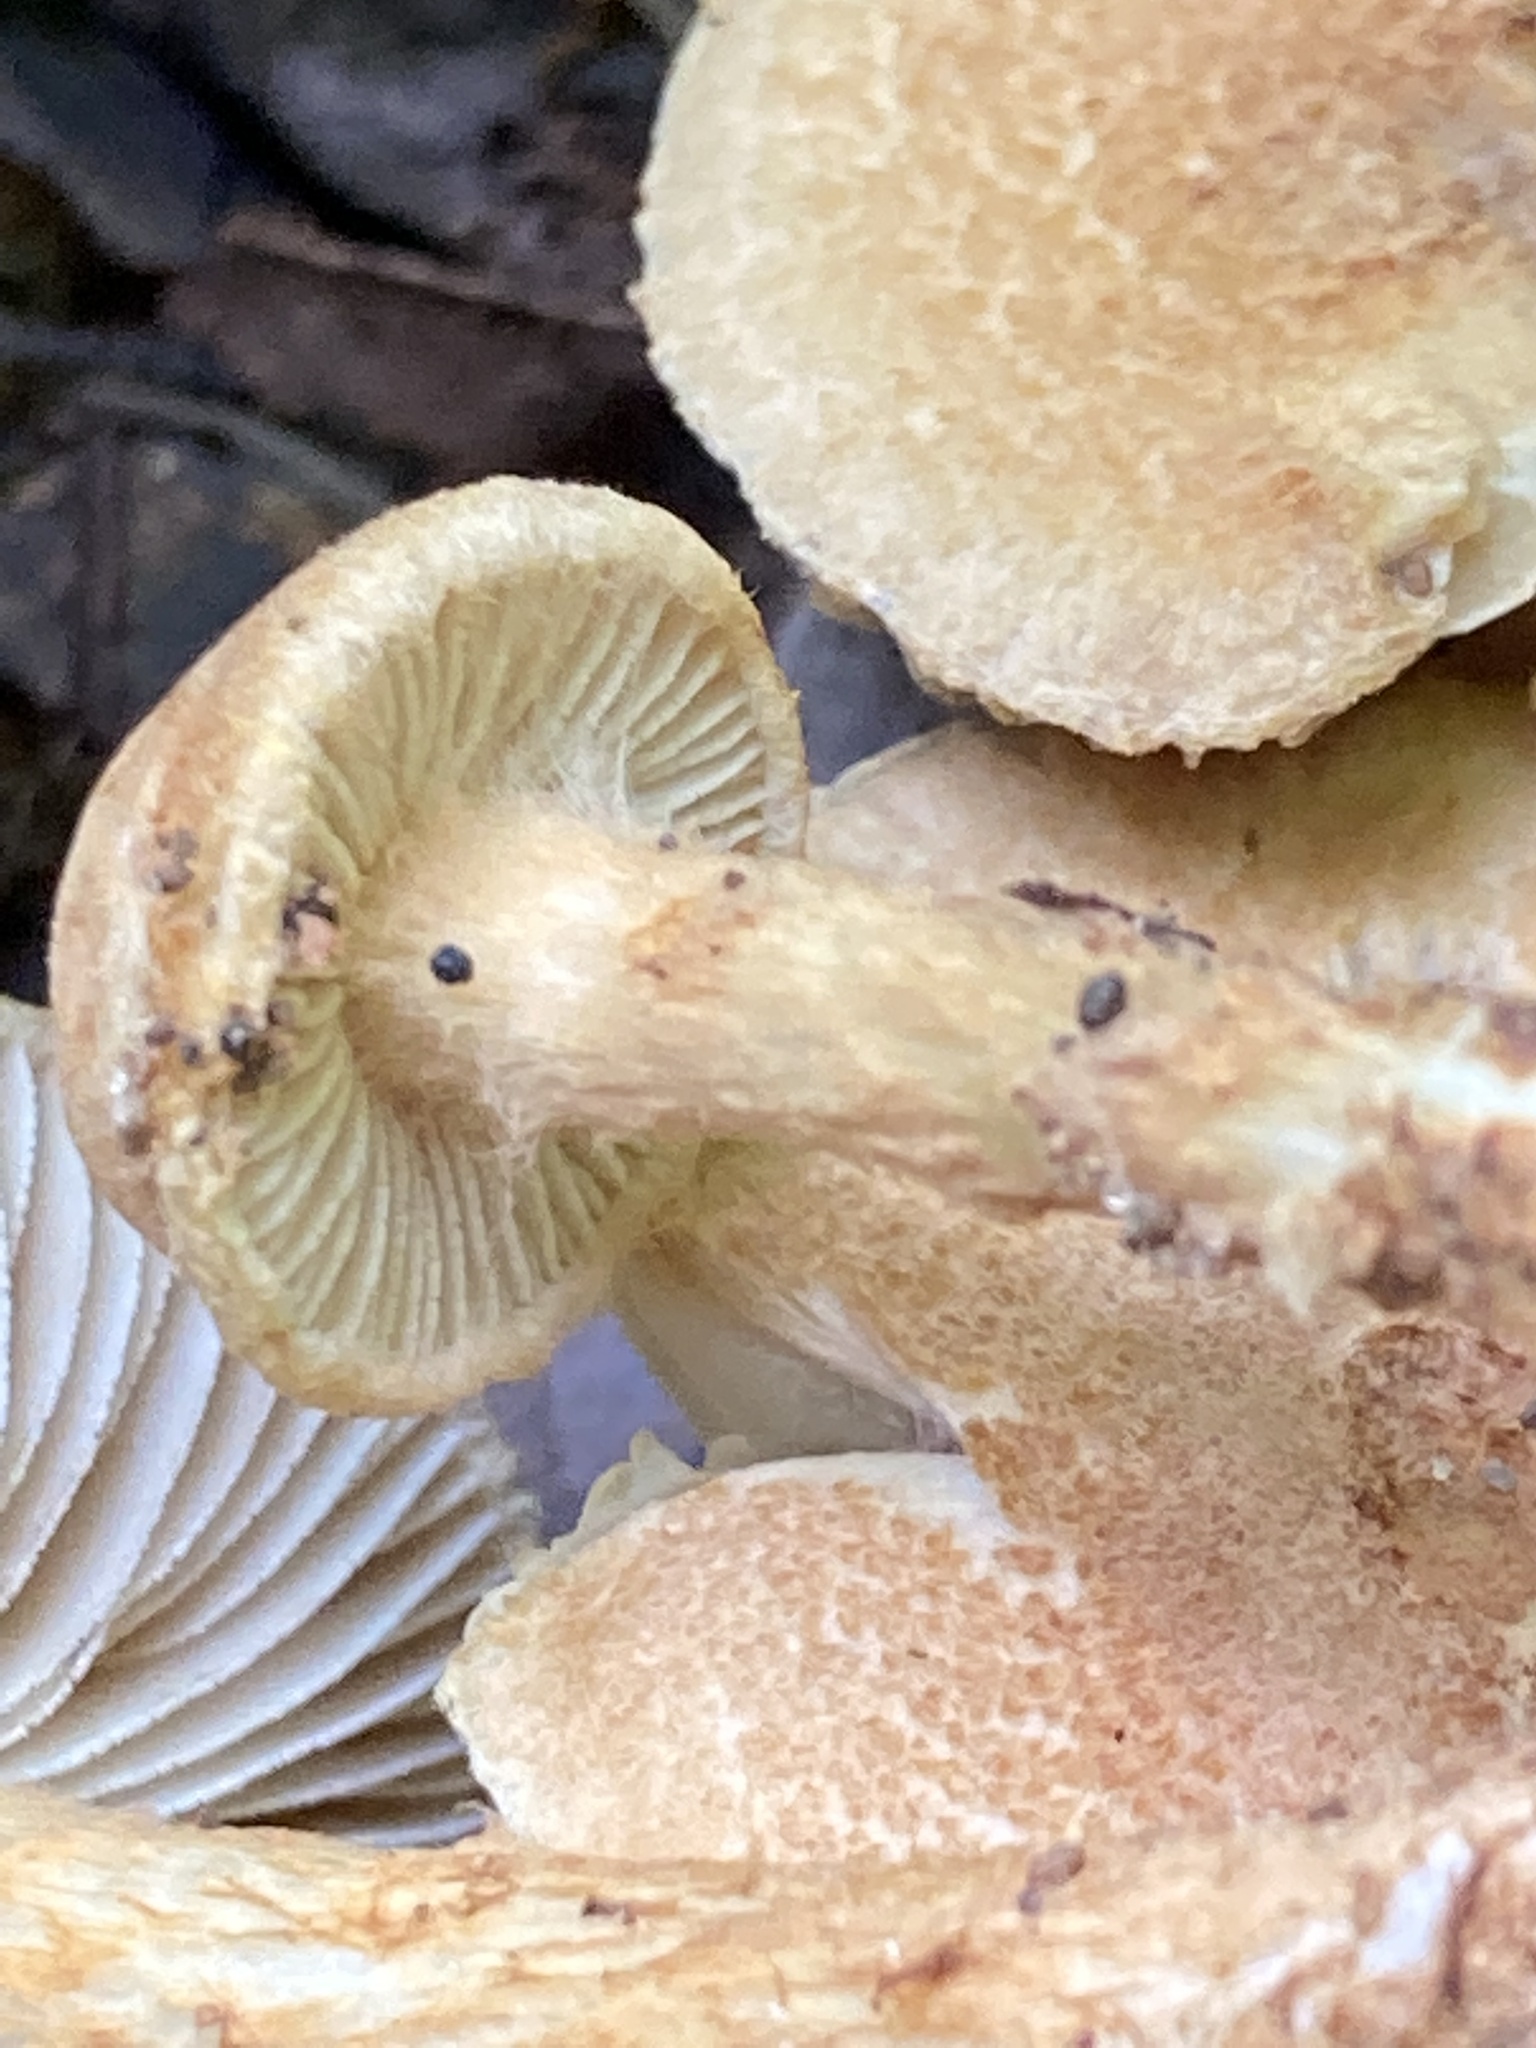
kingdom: Fungi
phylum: Basidiomycota
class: Agaricomycetes
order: Agaricales
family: Inocybaceae
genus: Mallocybe
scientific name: Mallocybe unicolor
